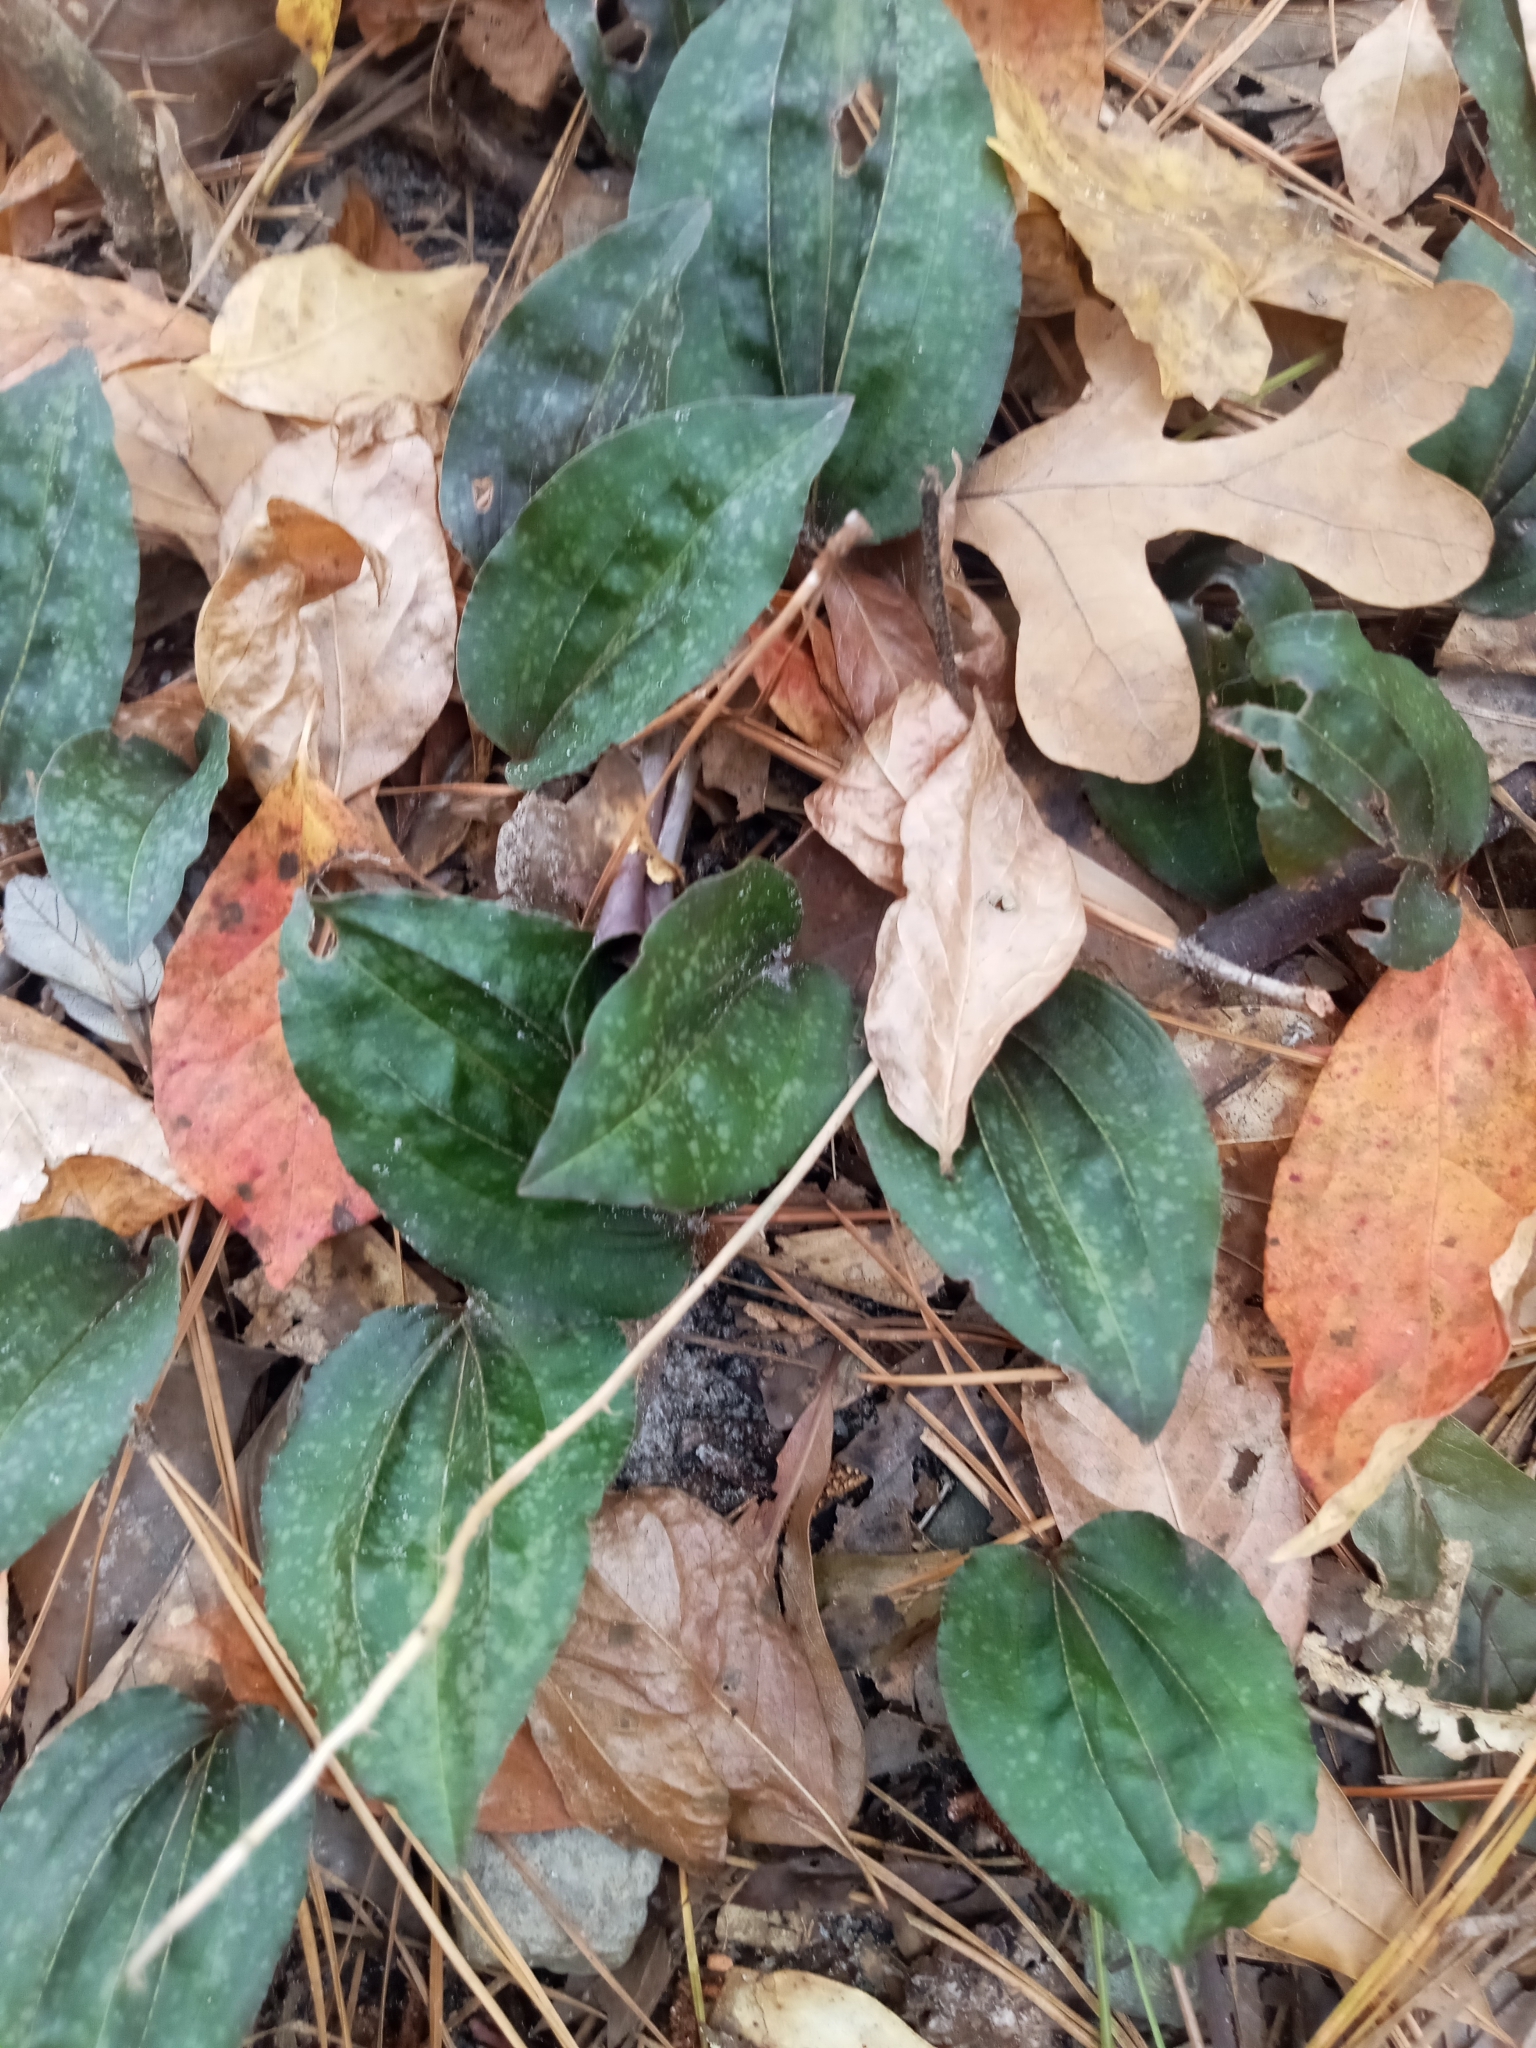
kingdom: Plantae
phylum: Tracheophyta
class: Liliopsida
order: Asparagales
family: Orchidaceae
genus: Tipularia
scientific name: Tipularia discolor
